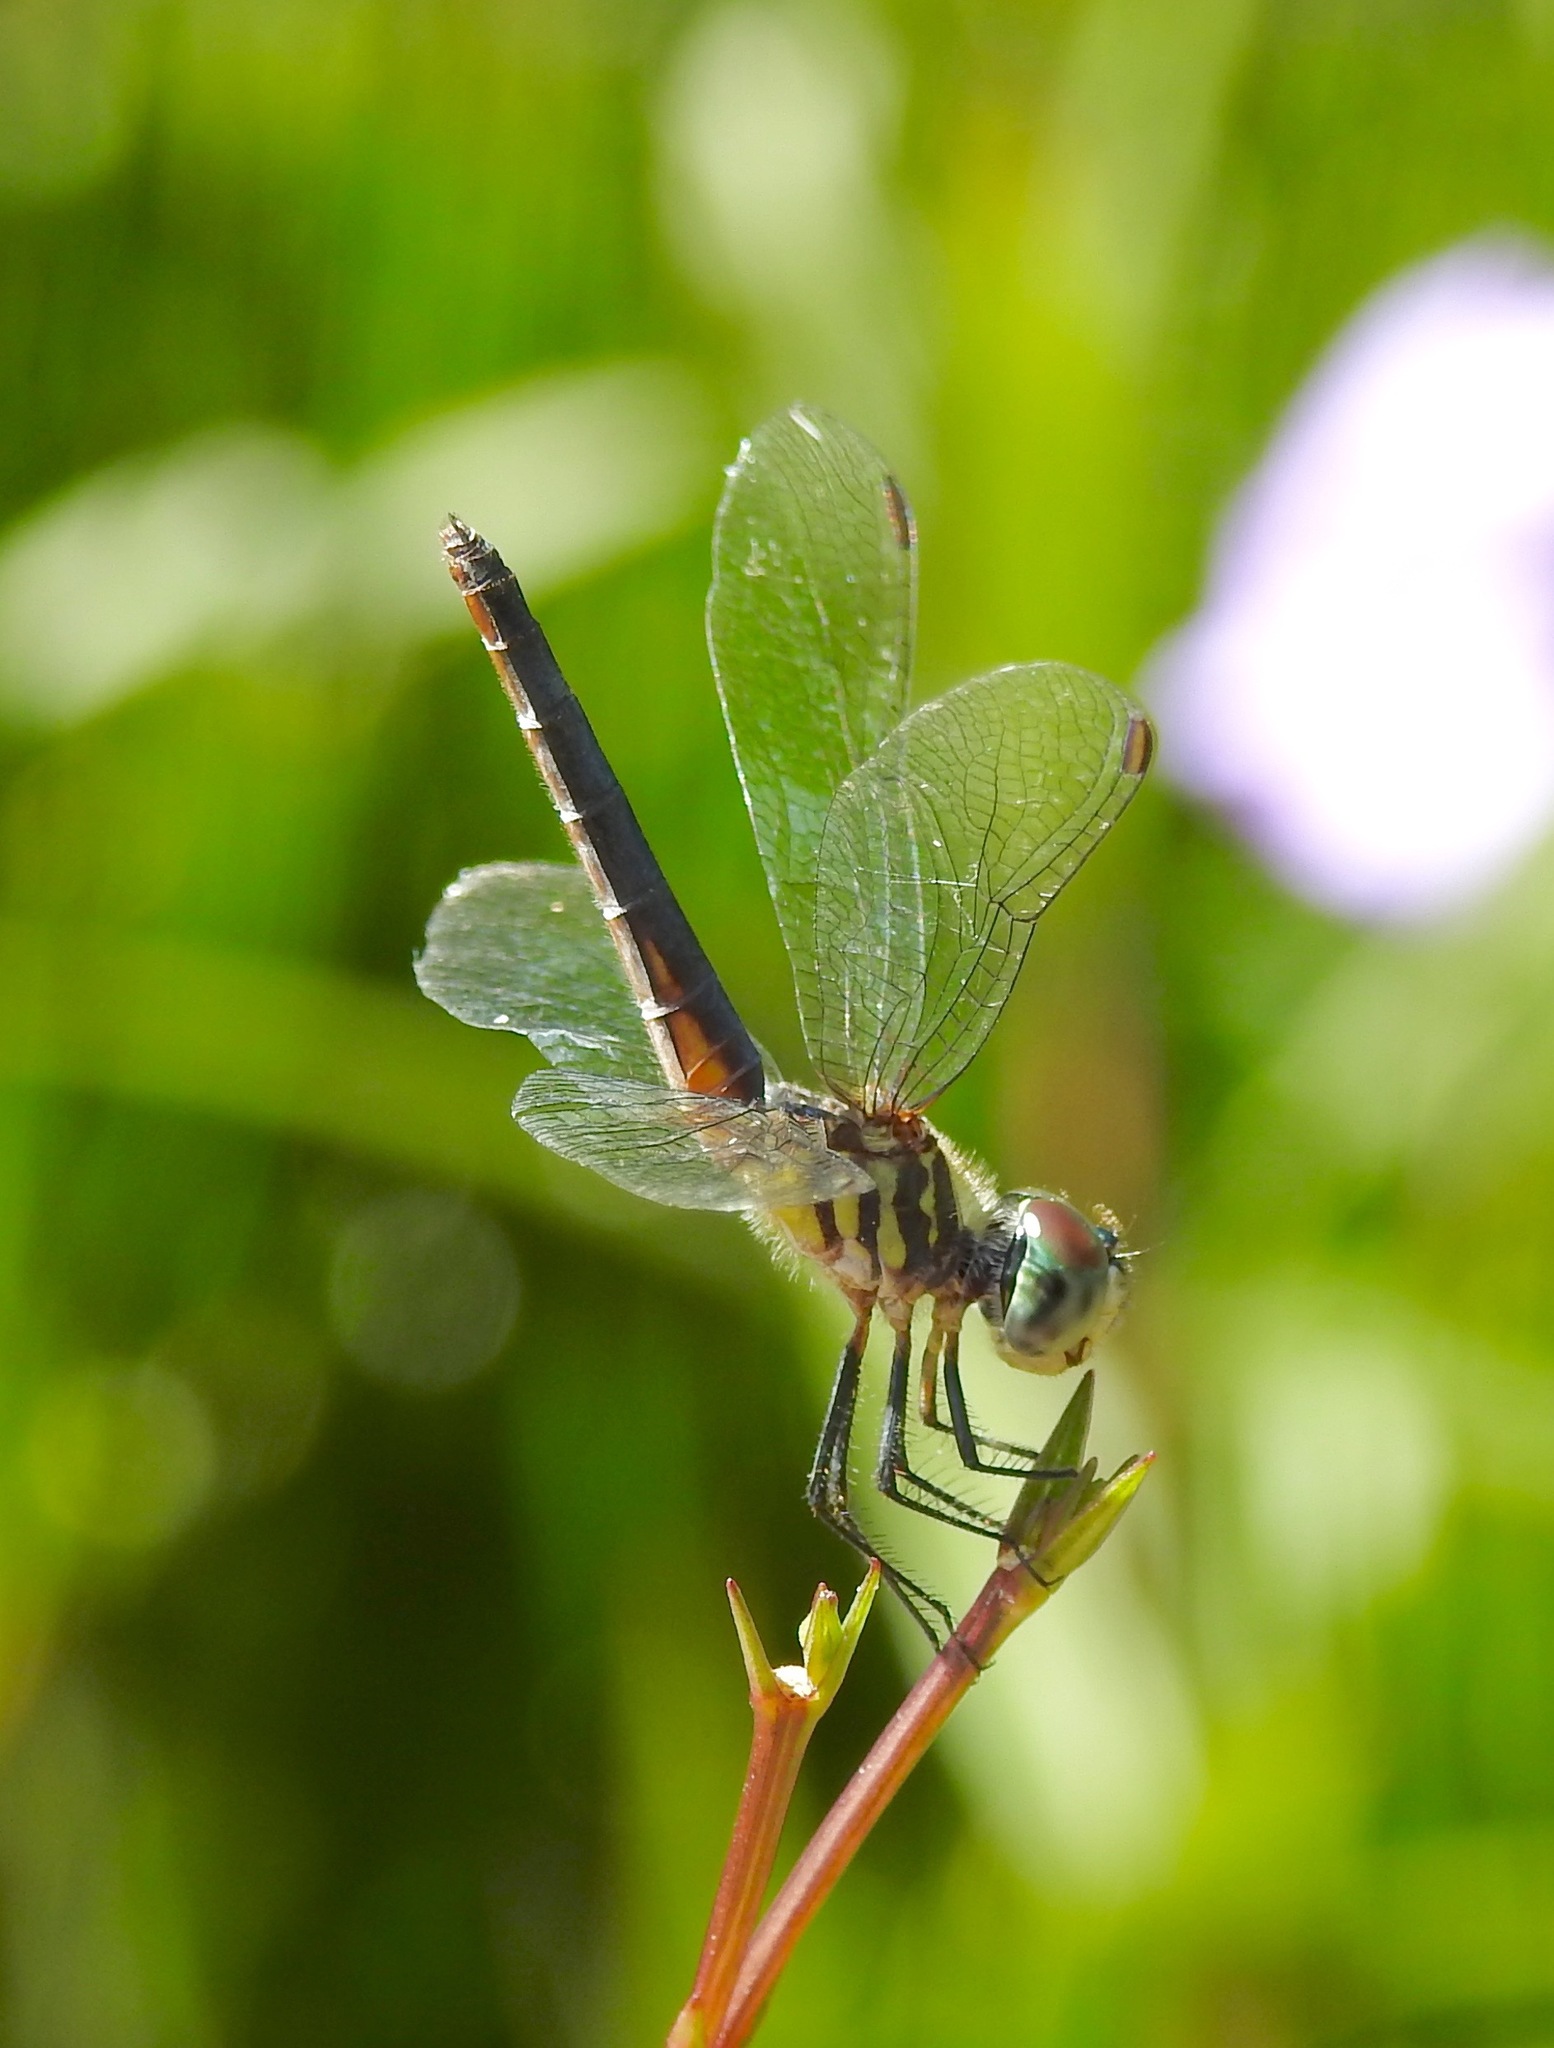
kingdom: Animalia
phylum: Arthropoda
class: Insecta
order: Odonata
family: Libellulidae
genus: Pachydiplax
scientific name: Pachydiplax longipennis
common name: Blue dasher
